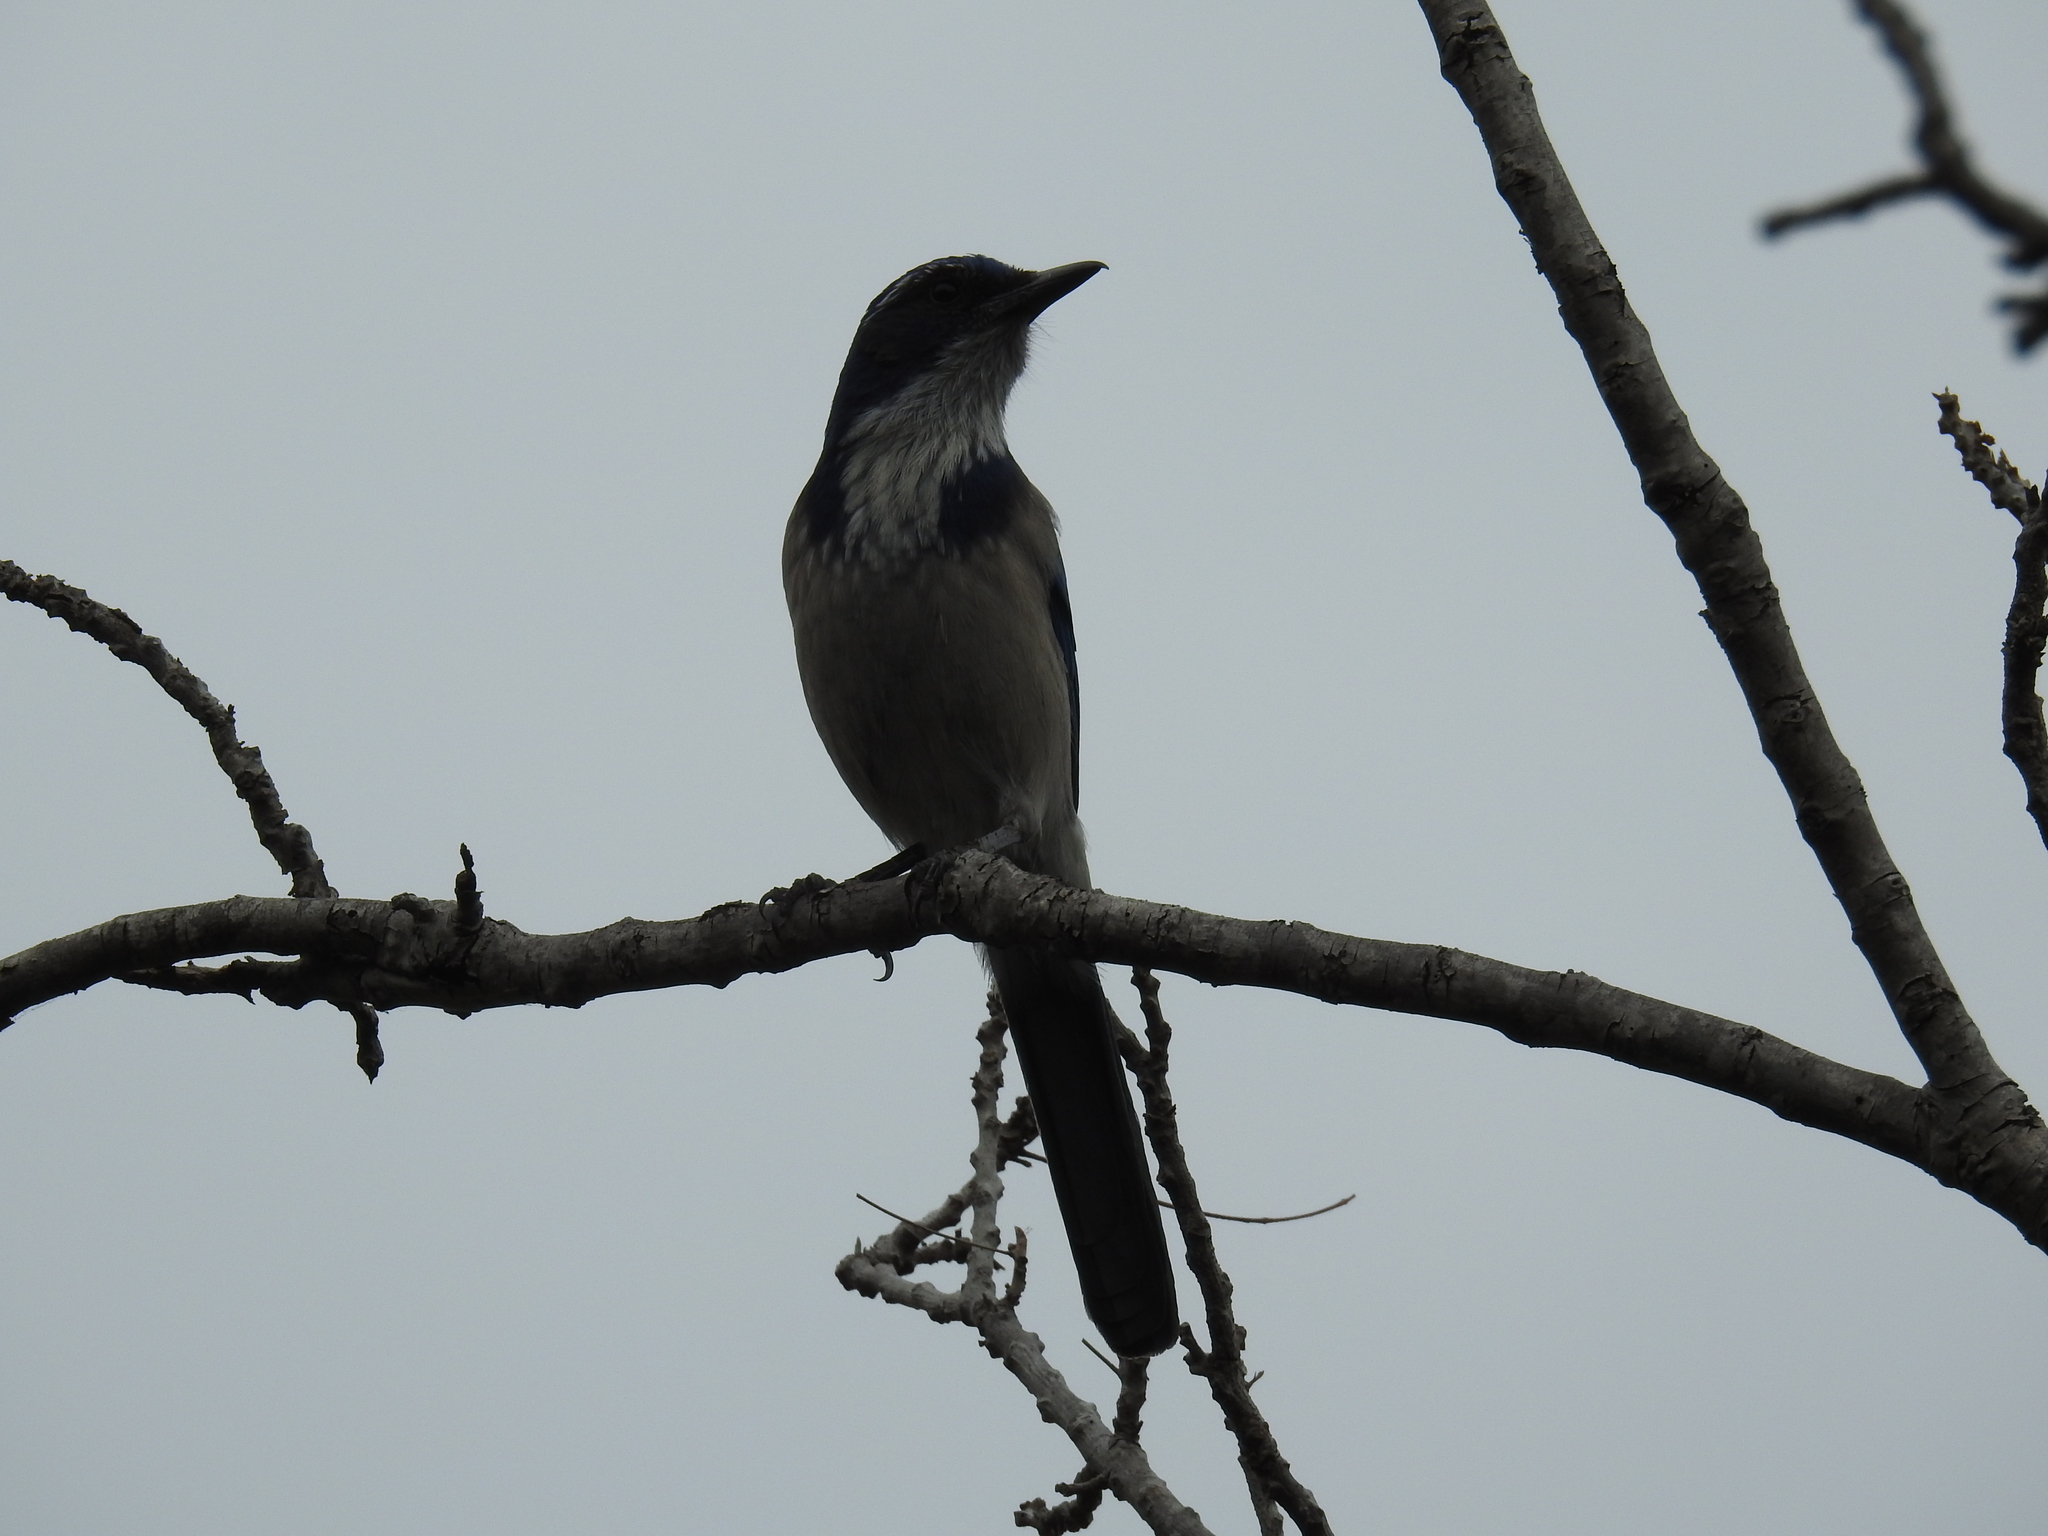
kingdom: Animalia
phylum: Chordata
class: Aves
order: Passeriformes
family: Corvidae
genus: Aphelocoma
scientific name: Aphelocoma californica
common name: California scrub-jay
